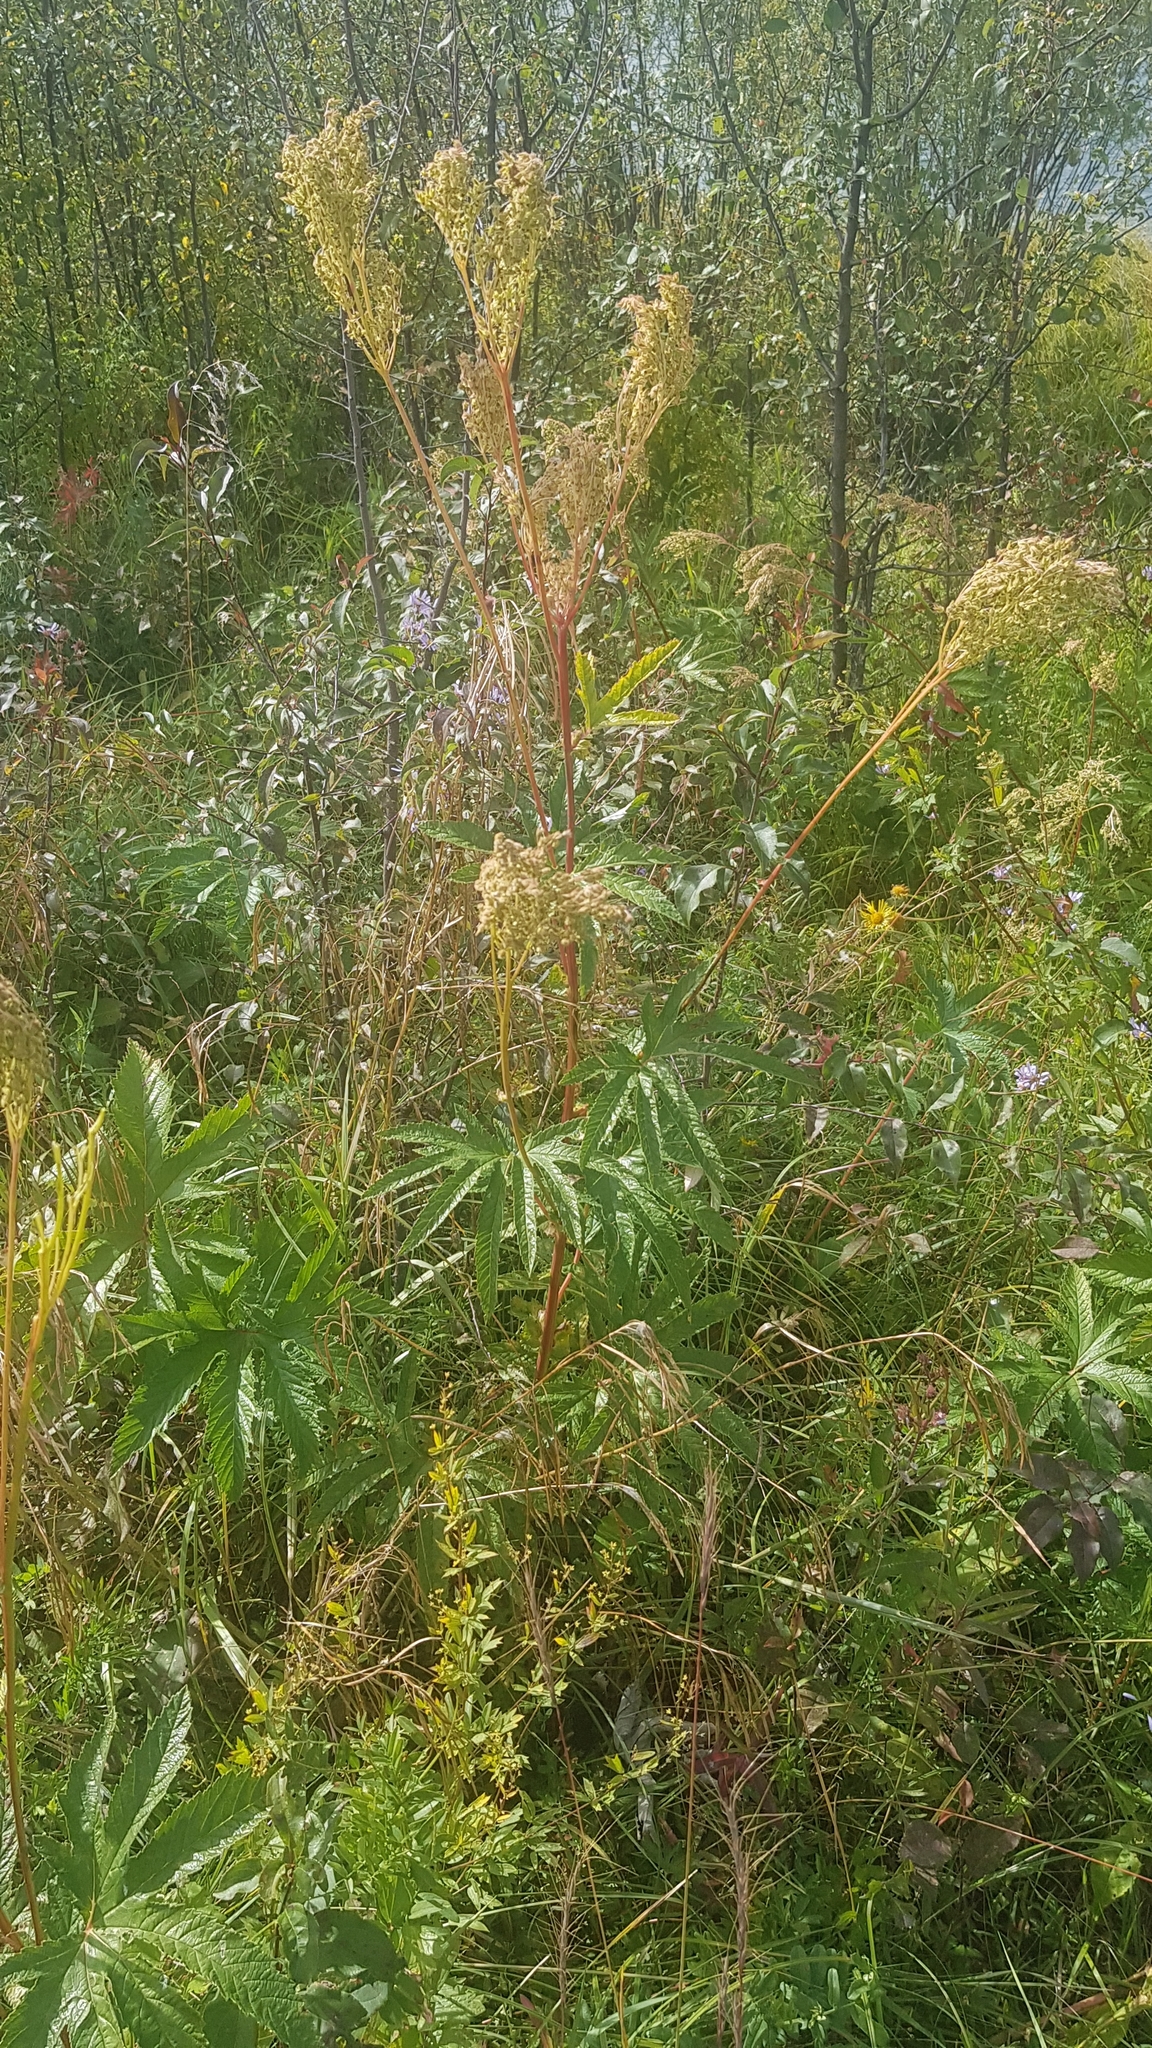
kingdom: Plantae
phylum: Tracheophyta
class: Magnoliopsida
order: Rosales
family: Rosaceae
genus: Filipendula
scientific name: Filipendula digitata
